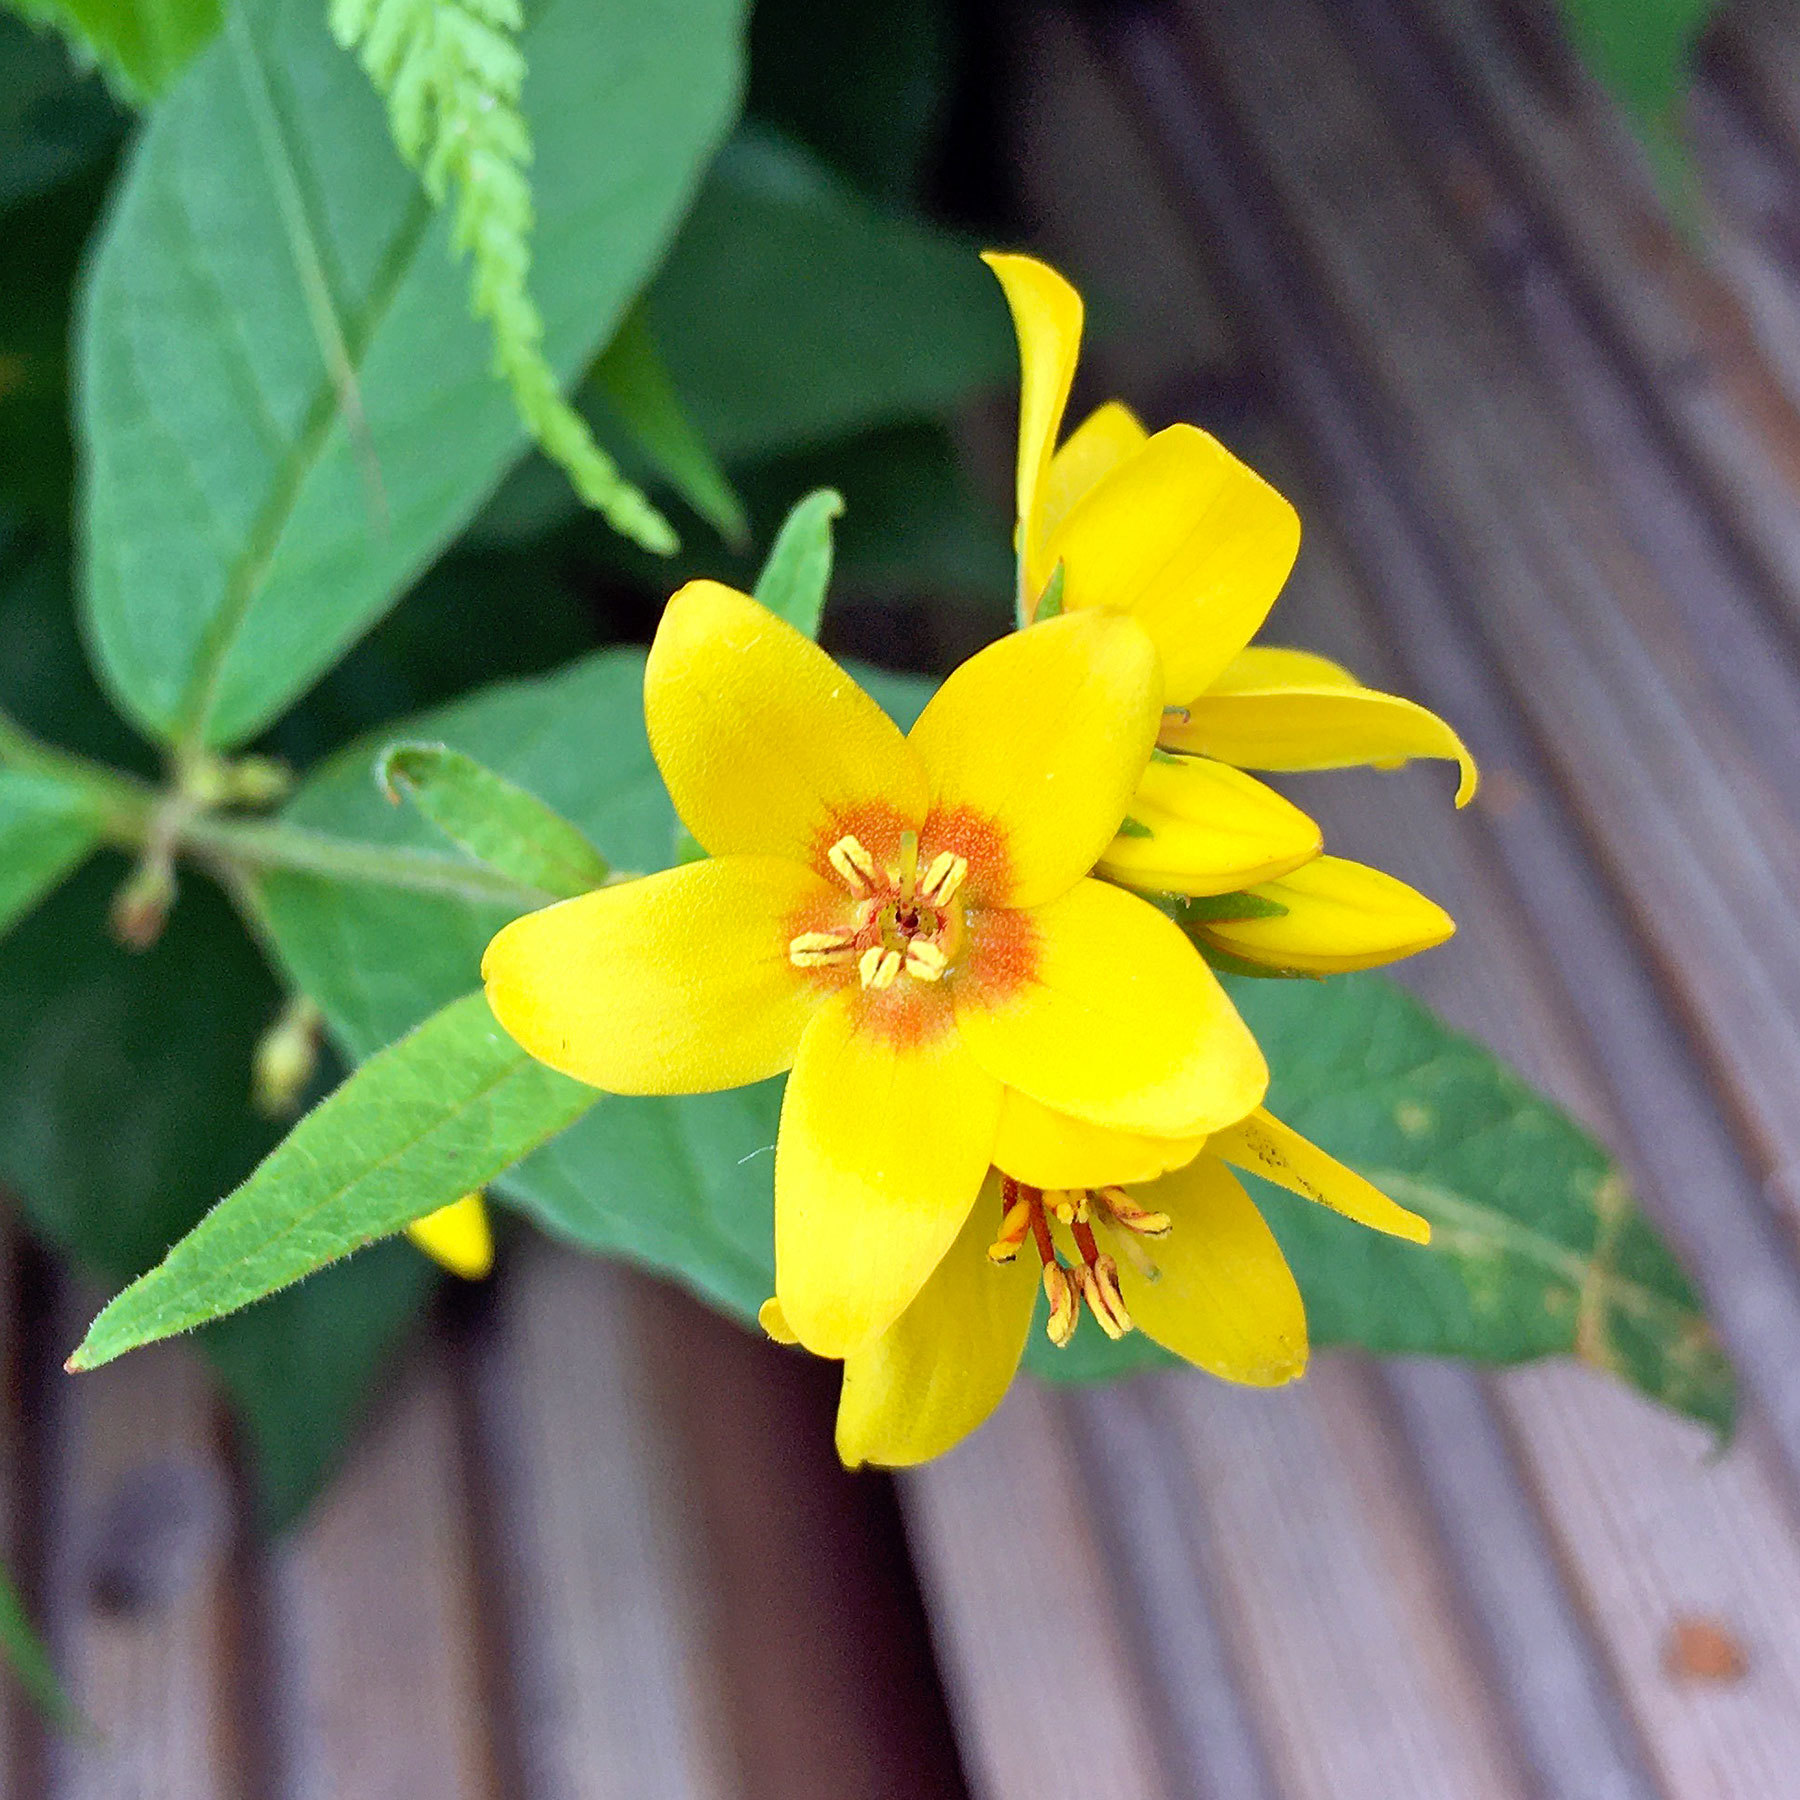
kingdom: Plantae
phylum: Tracheophyta
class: Magnoliopsida
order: Ericales
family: Primulaceae
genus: Lysimachia
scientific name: Lysimachia vulgaris
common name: Yellow loosestrife
